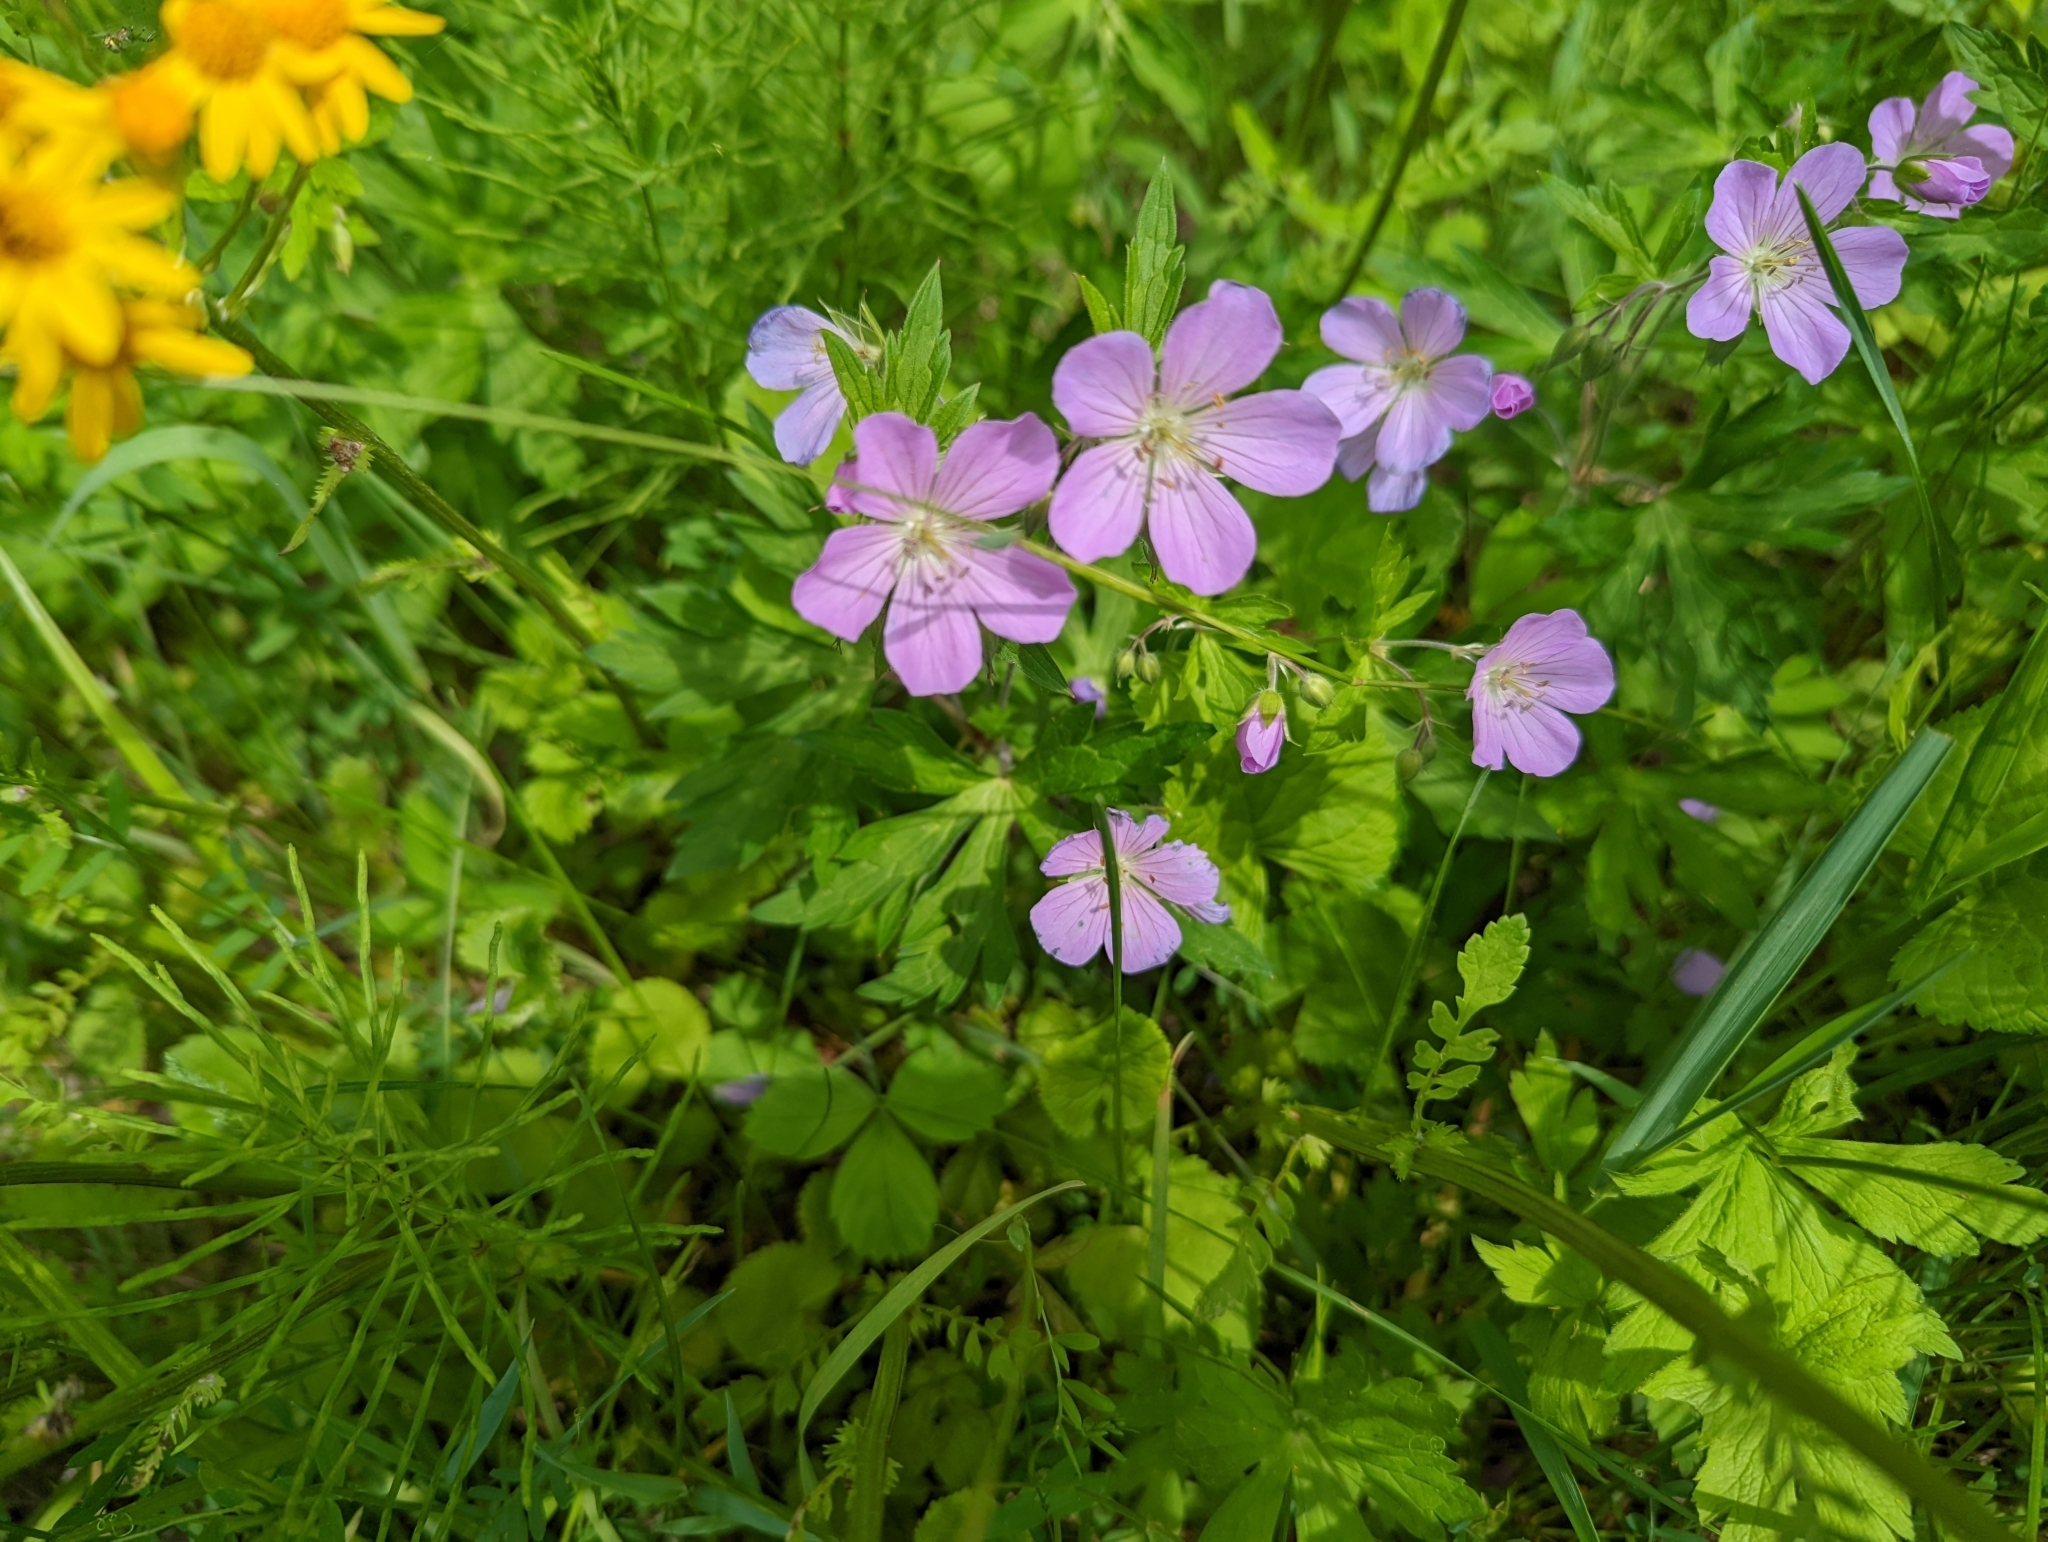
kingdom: Plantae
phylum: Tracheophyta
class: Magnoliopsida
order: Geraniales
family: Geraniaceae
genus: Geranium
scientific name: Geranium maculatum
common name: Spotted geranium
